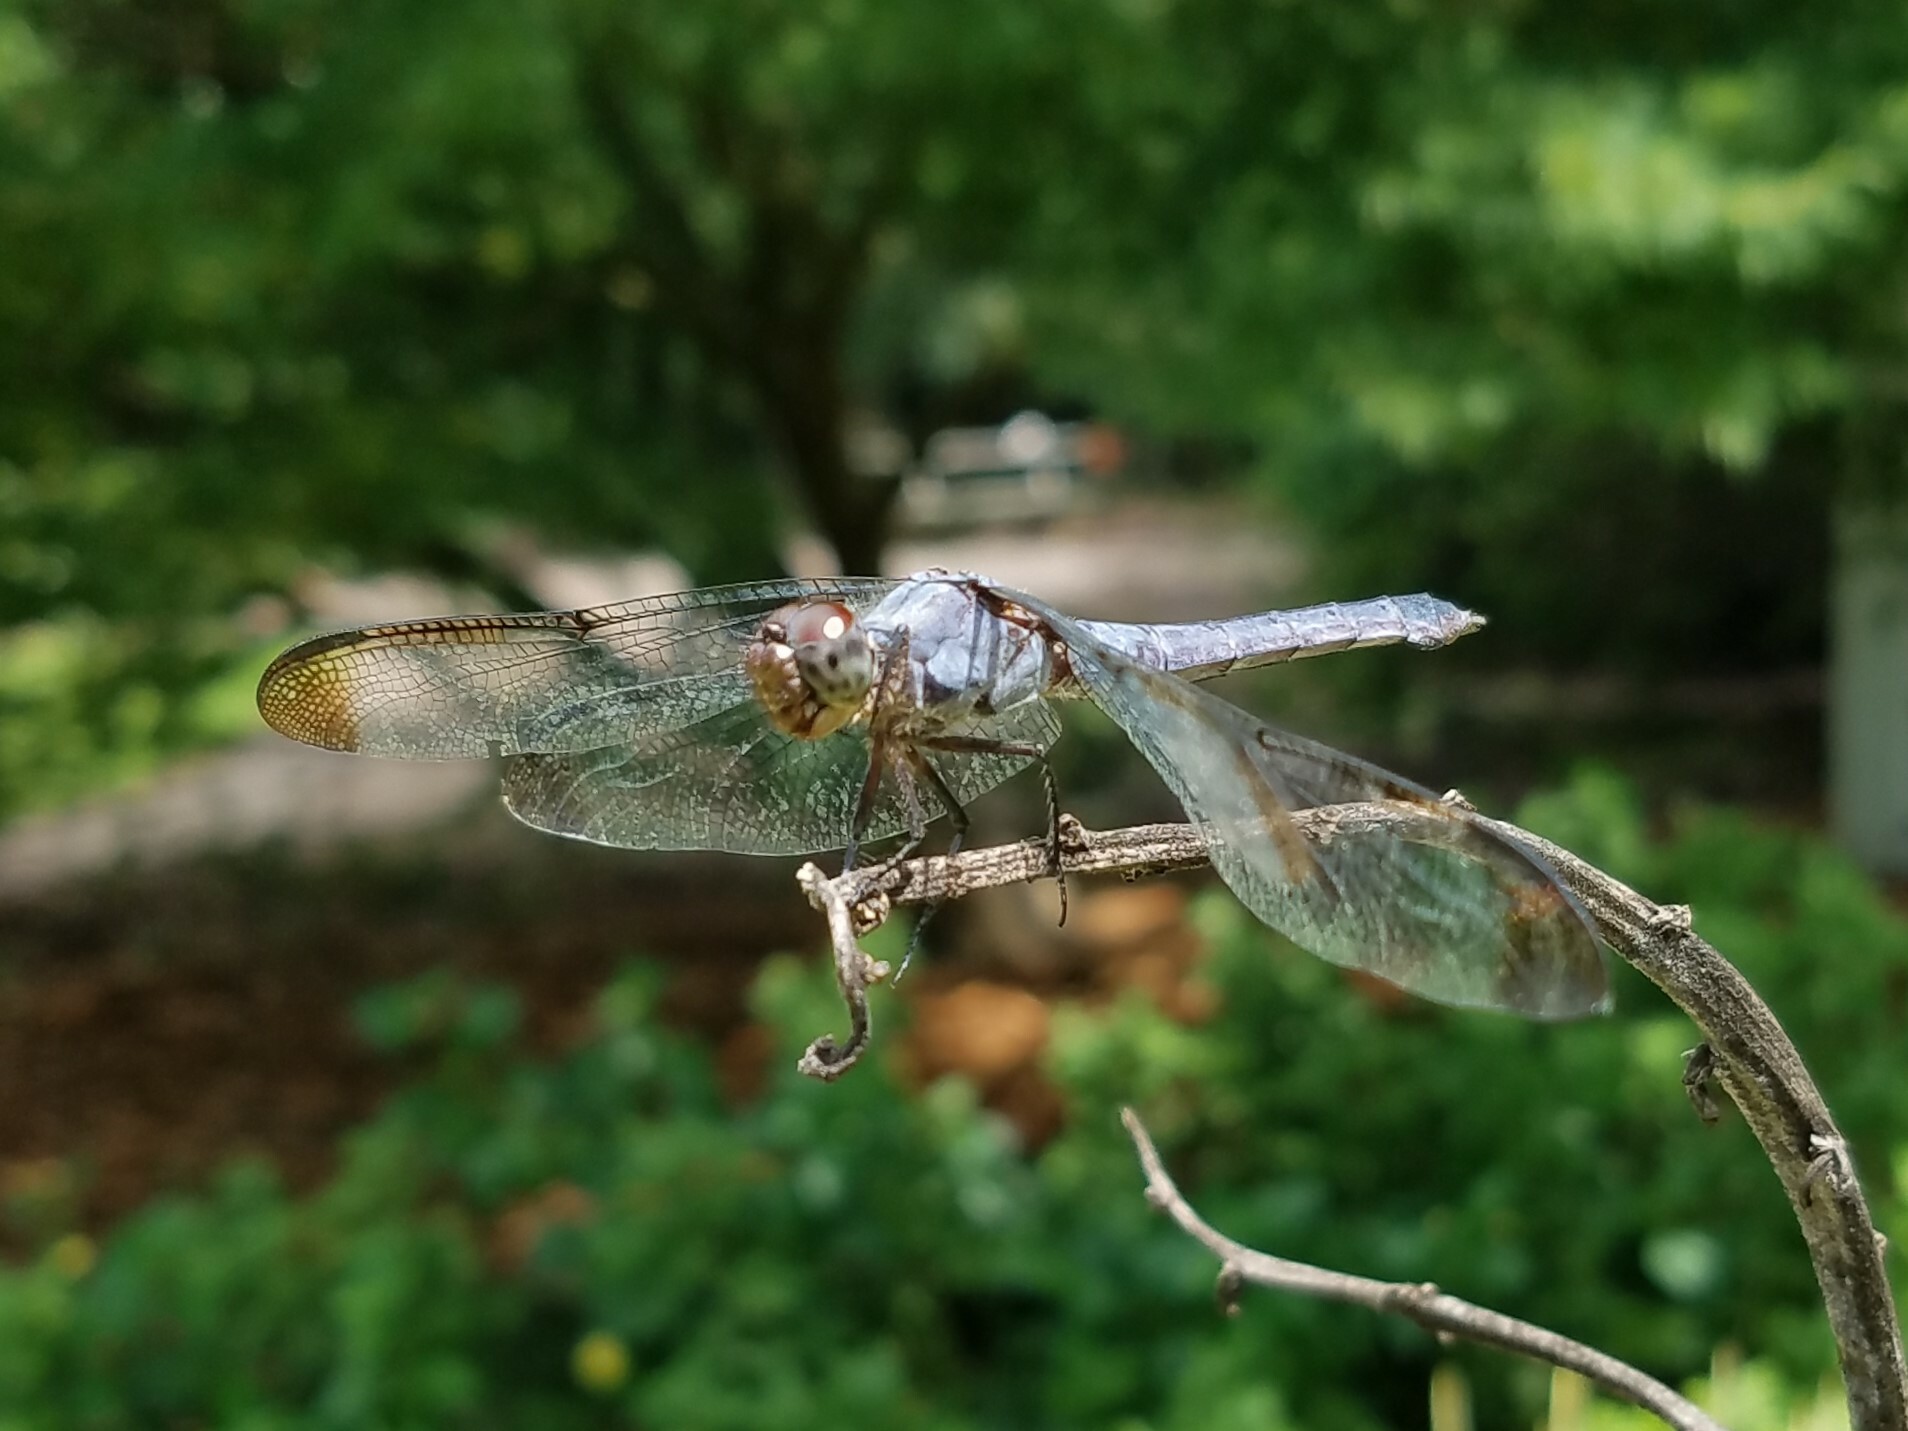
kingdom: Animalia
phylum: Arthropoda
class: Insecta
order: Odonata
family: Libellulidae
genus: Libellula
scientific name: Libellula incesta
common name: Slaty skimmer
